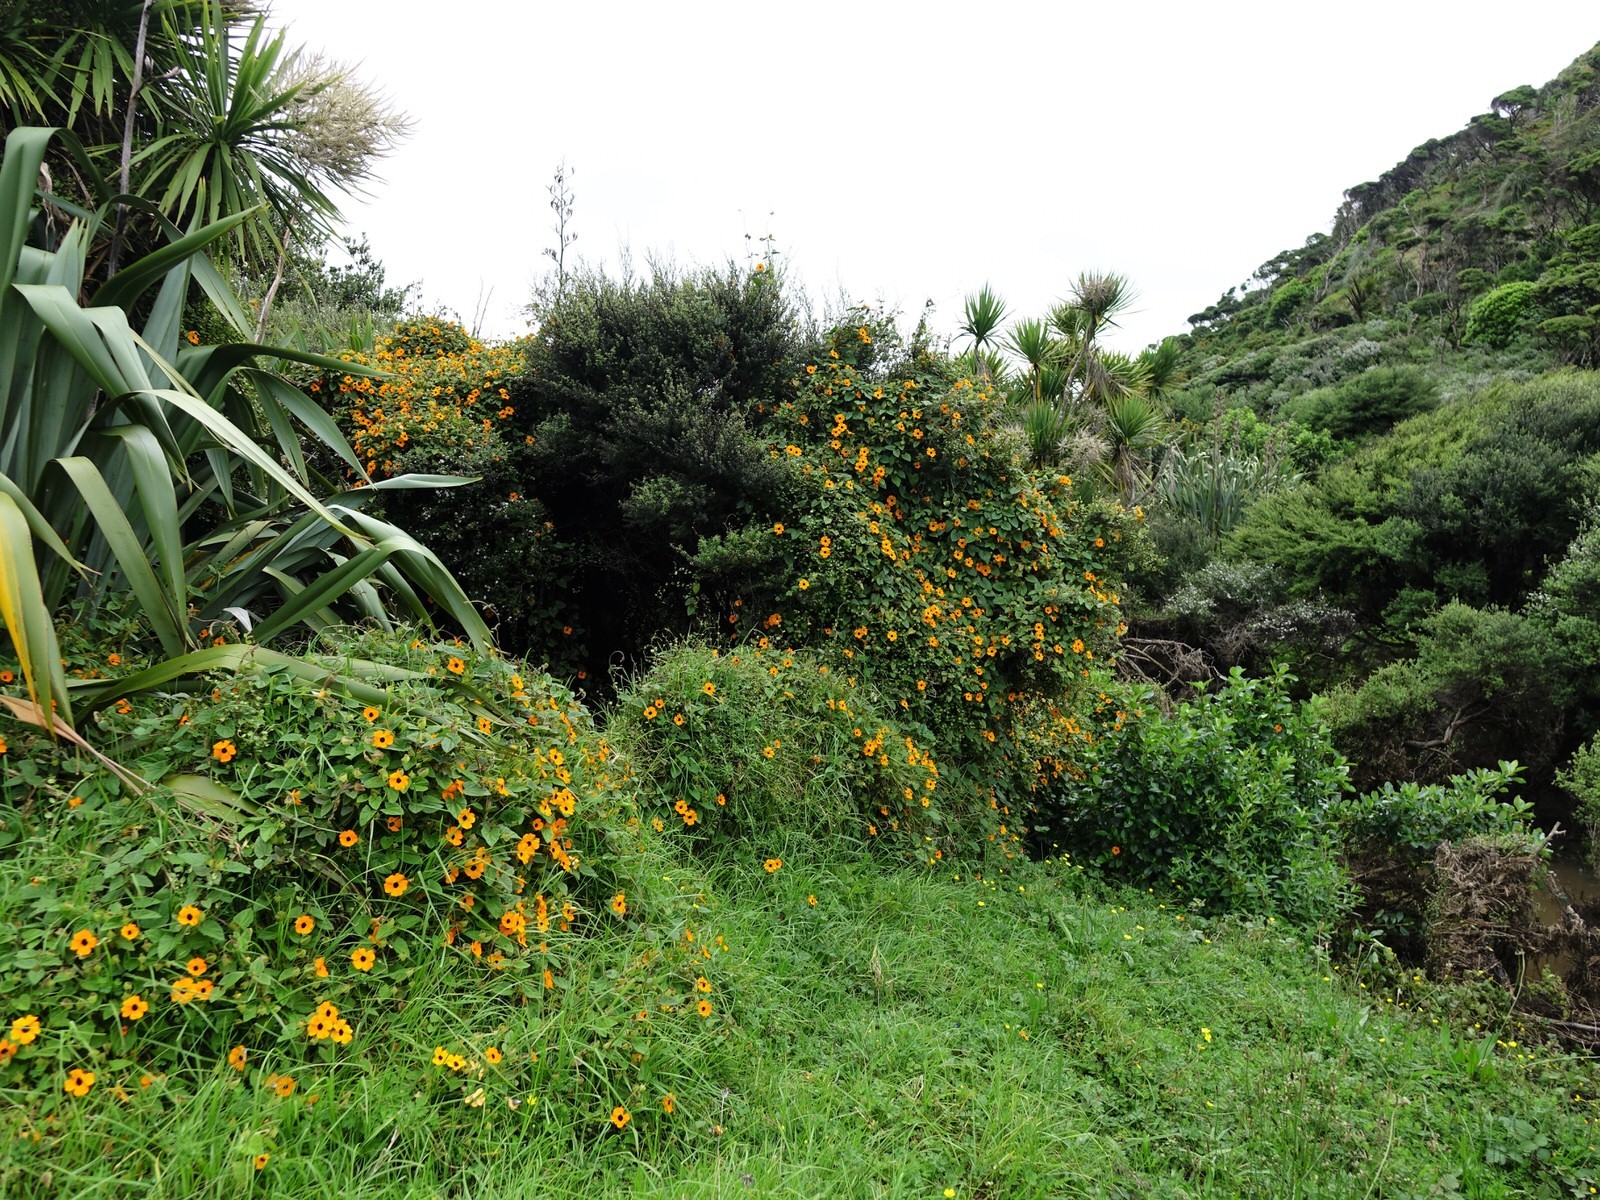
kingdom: Plantae
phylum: Tracheophyta
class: Magnoliopsida
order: Lamiales
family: Acanthaceae
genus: Thunbergia
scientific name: Thunbergia alata
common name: Blackeyed susan vine
